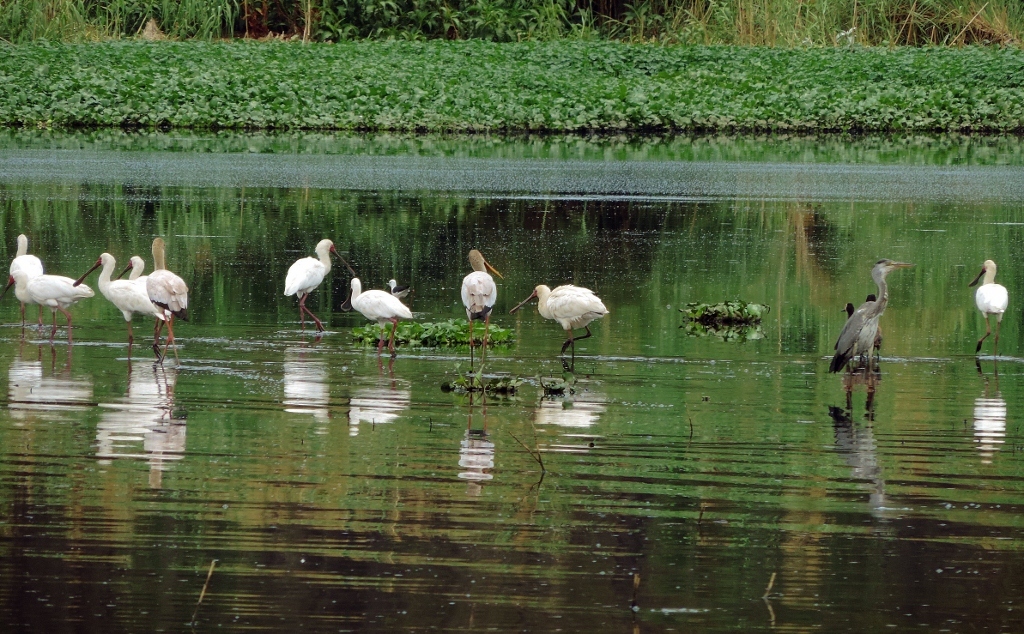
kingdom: Animalia
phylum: Chordata
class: Aves
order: Pelecaniformes
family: Threskiornithidae
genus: Platalea
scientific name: Platalea alba
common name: African spoonbill
